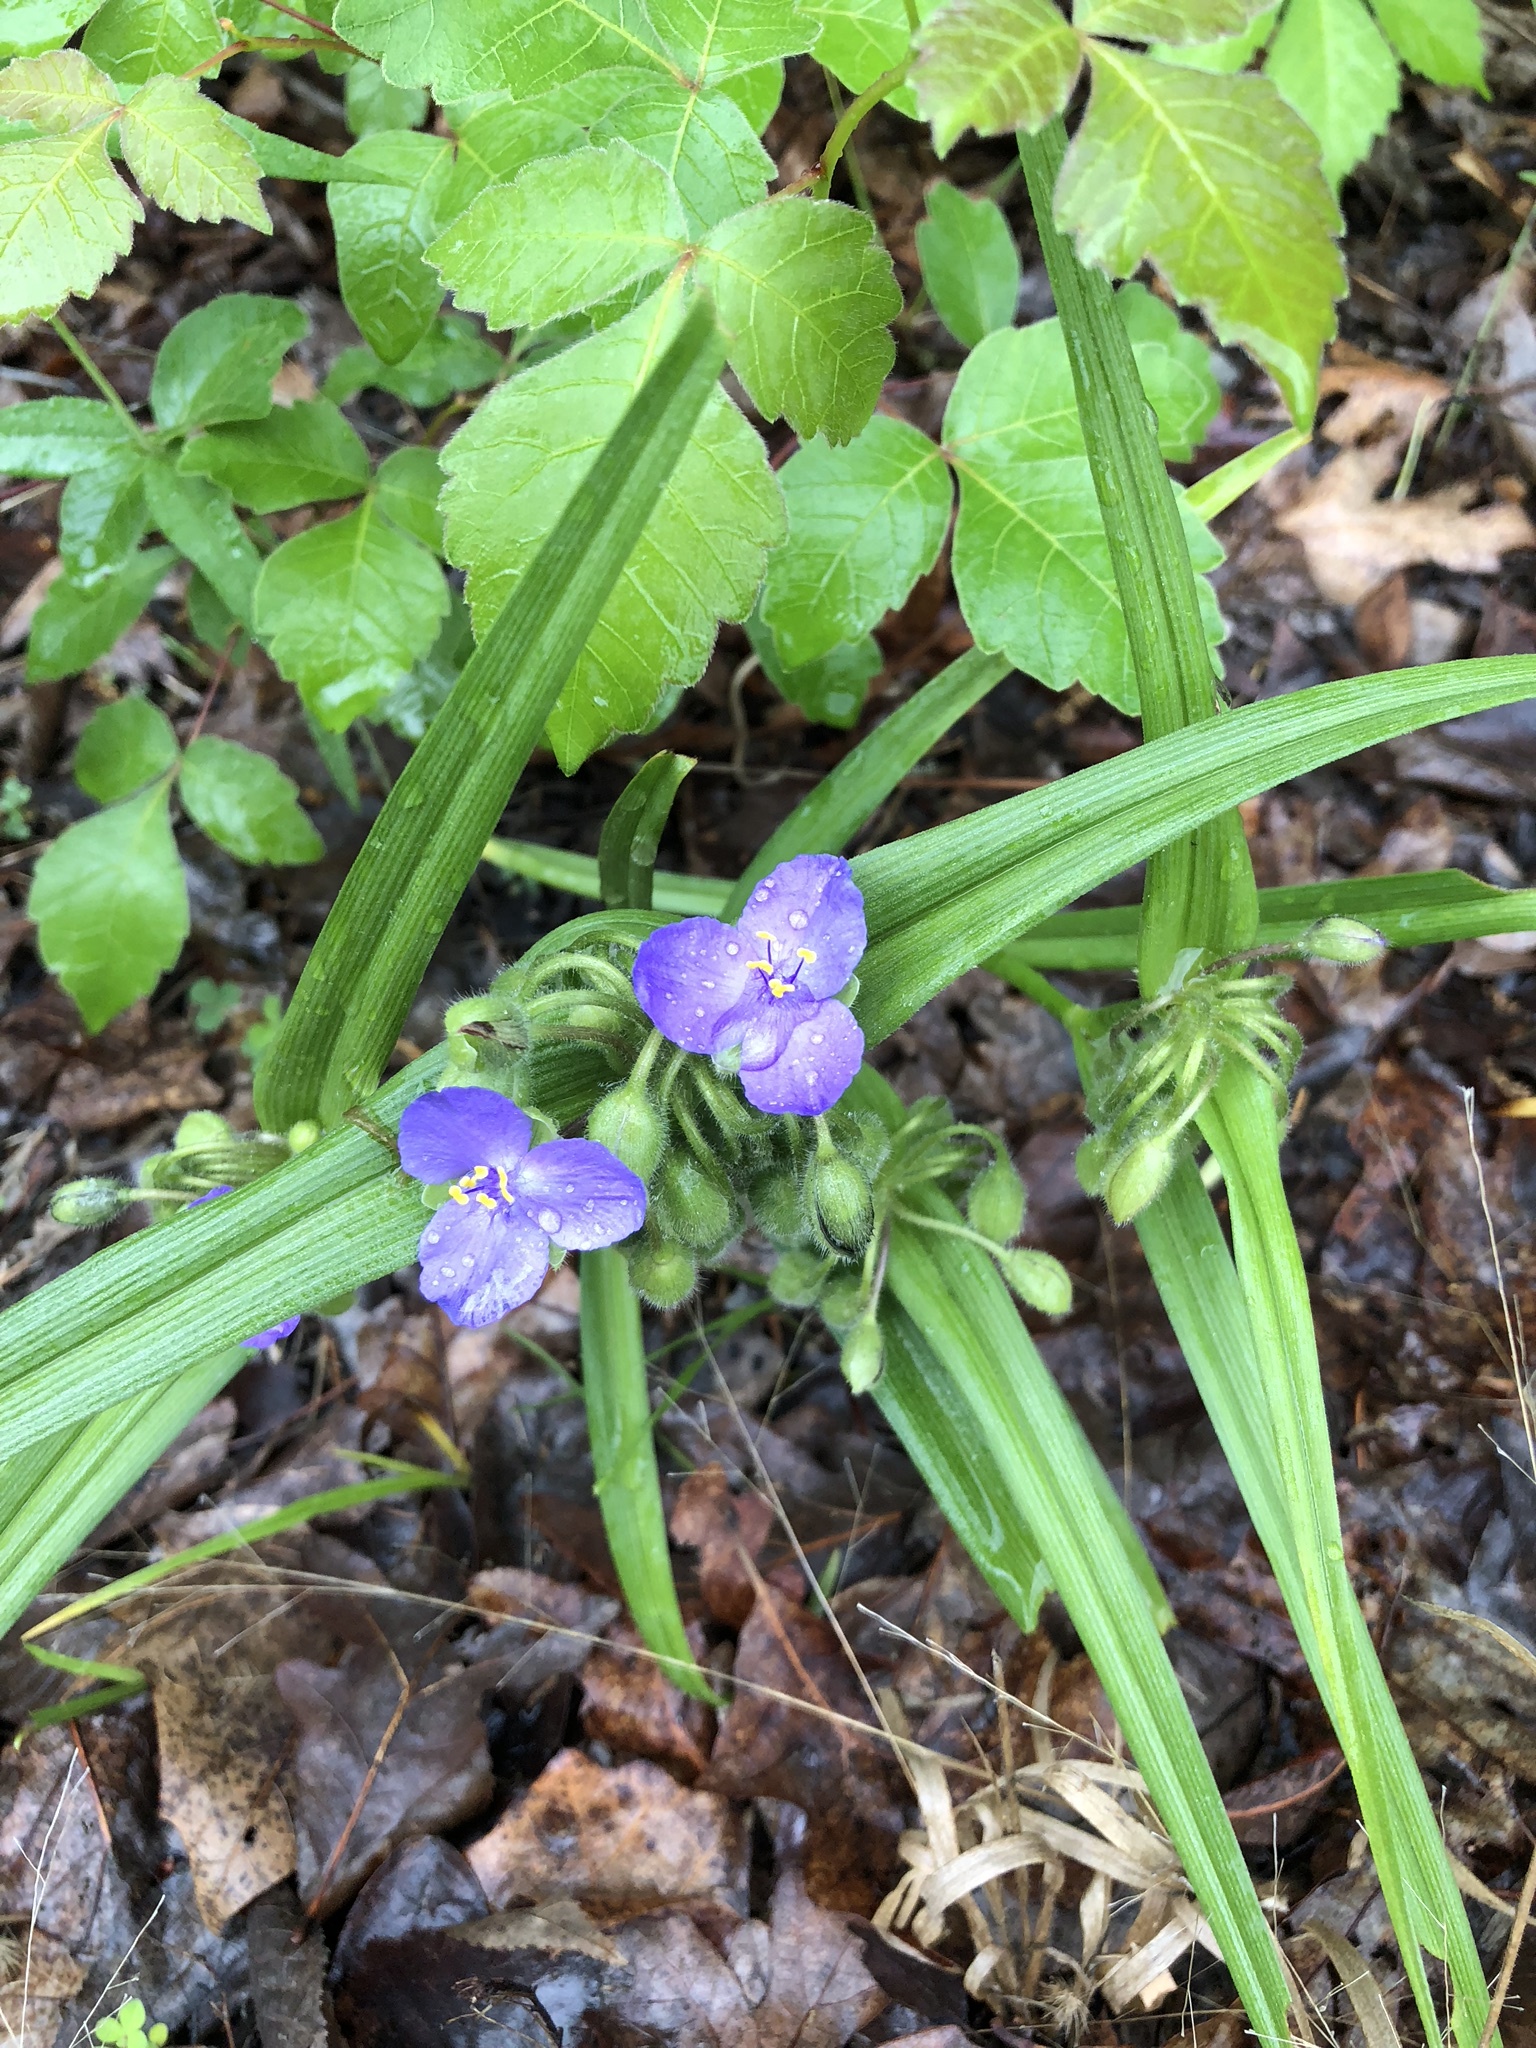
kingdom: Plantae
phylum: Tracheophyta
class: Liliopsida
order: Commelinales
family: Commelinaceae
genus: Tradescantia
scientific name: Tradescantia virginiana
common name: Spiderwort
